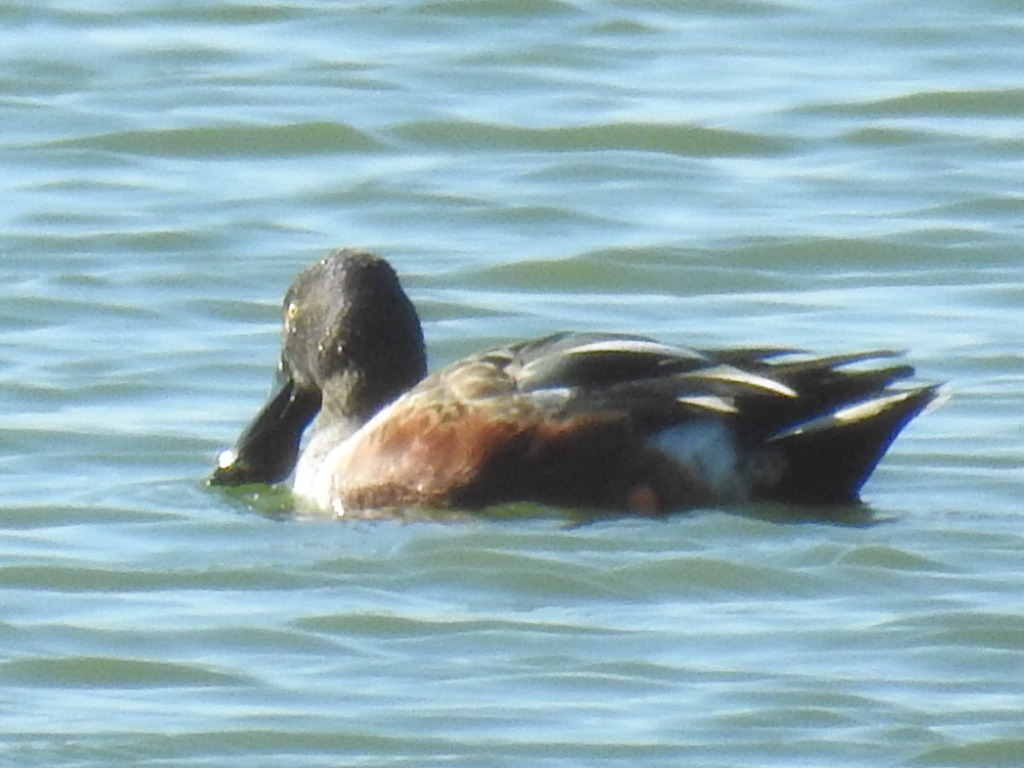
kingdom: Animalia
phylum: Chordata
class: Aves
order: Anseriformes
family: Anatidae
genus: Spatula
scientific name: Spatula clypeata
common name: Northern shoveler
